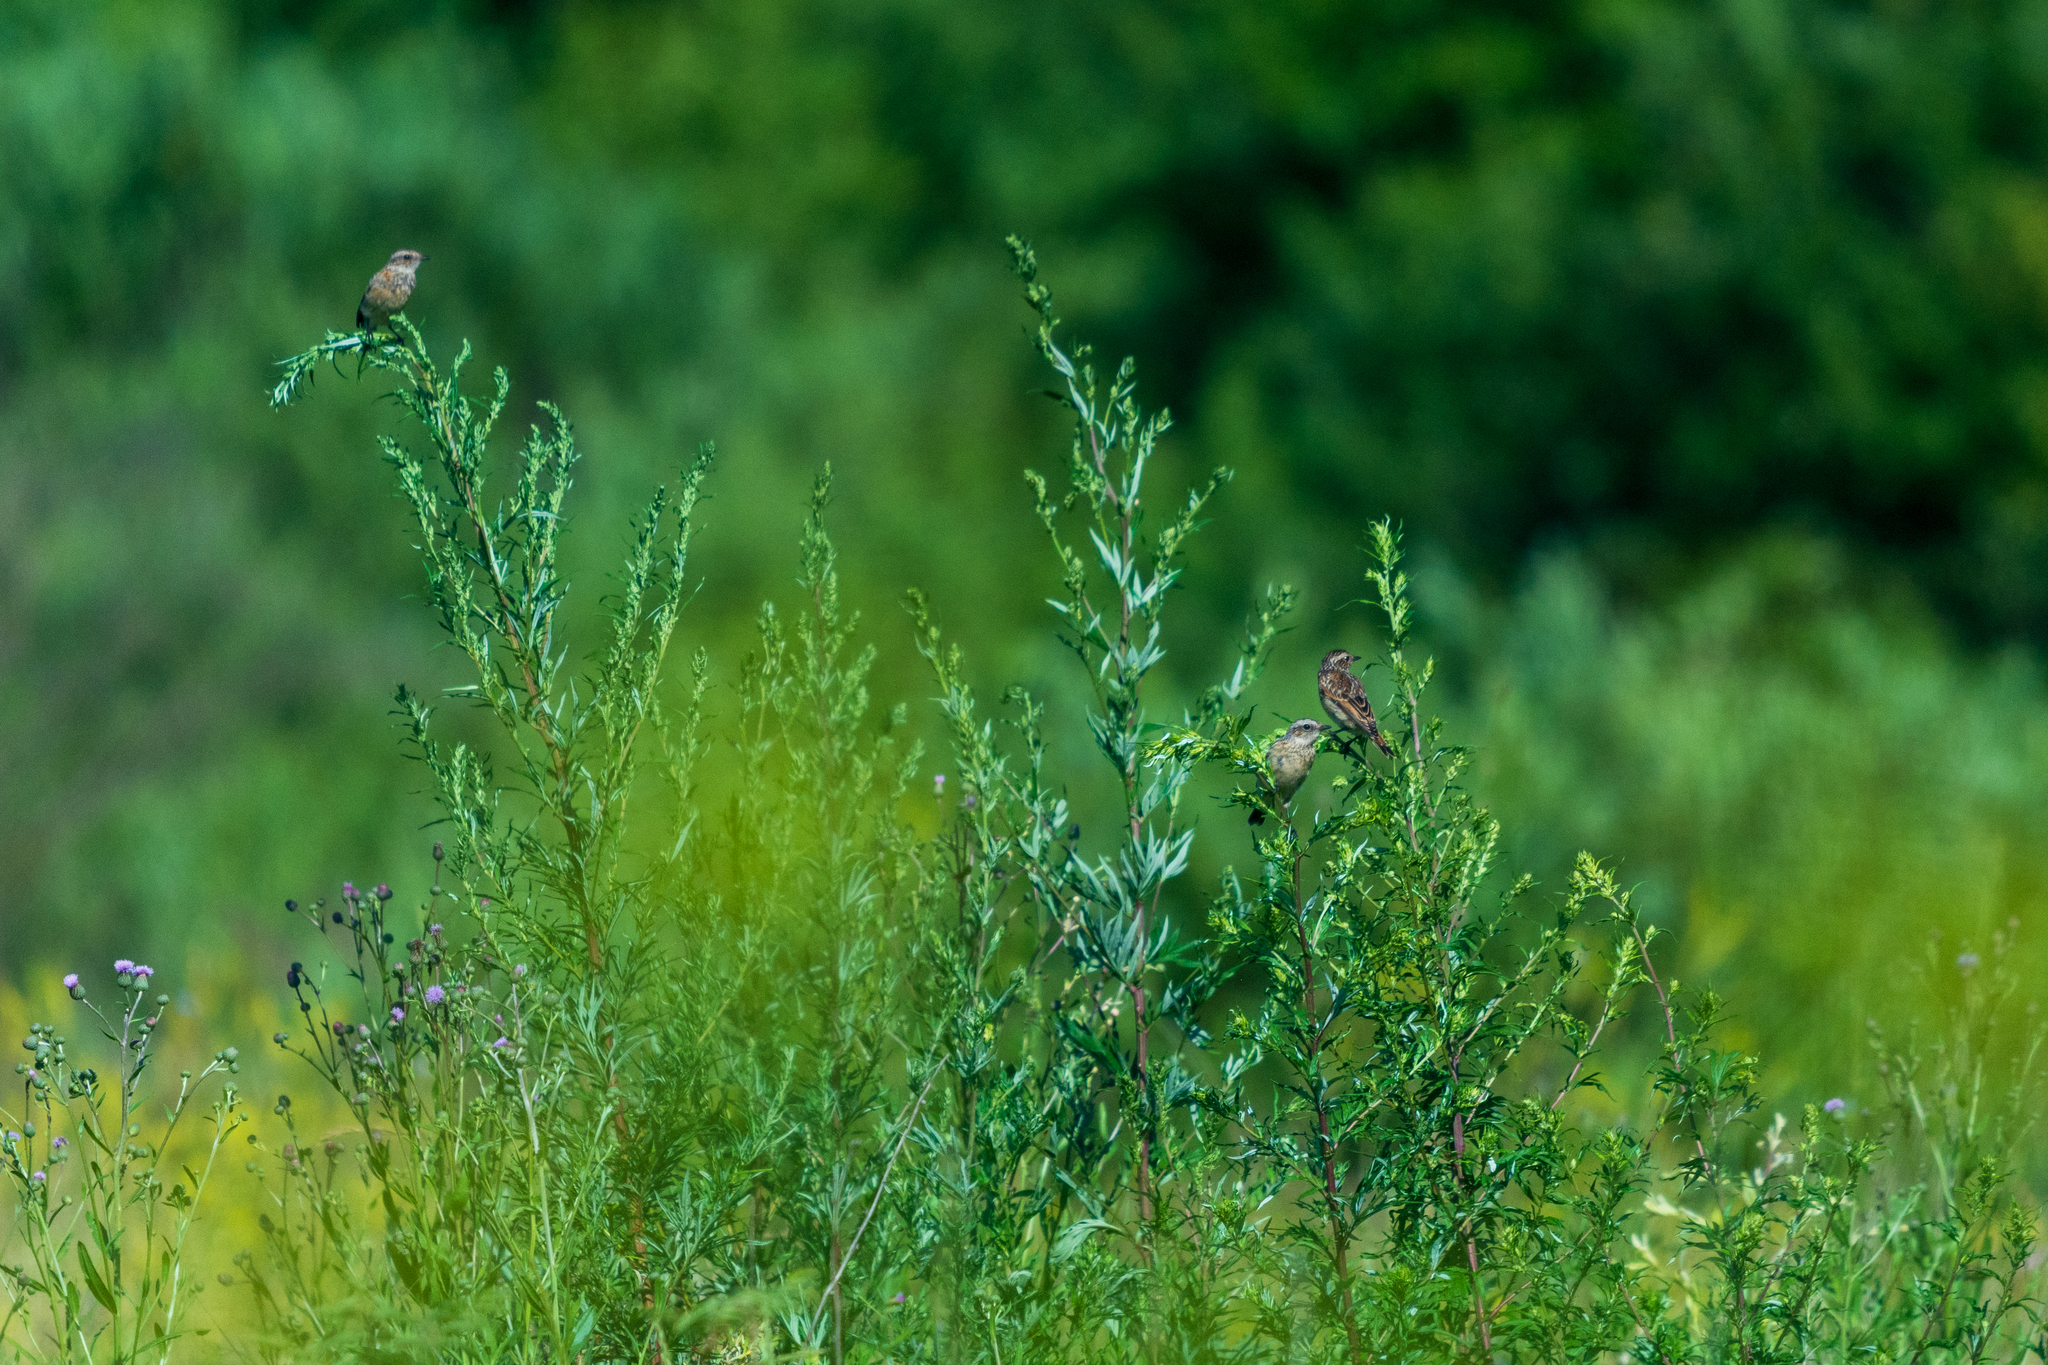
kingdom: Animalia
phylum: Chordata
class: Aves
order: Passeriformes
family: Muscicapidae
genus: Saxicola
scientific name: Saxicola rubetra
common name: Whinchat
